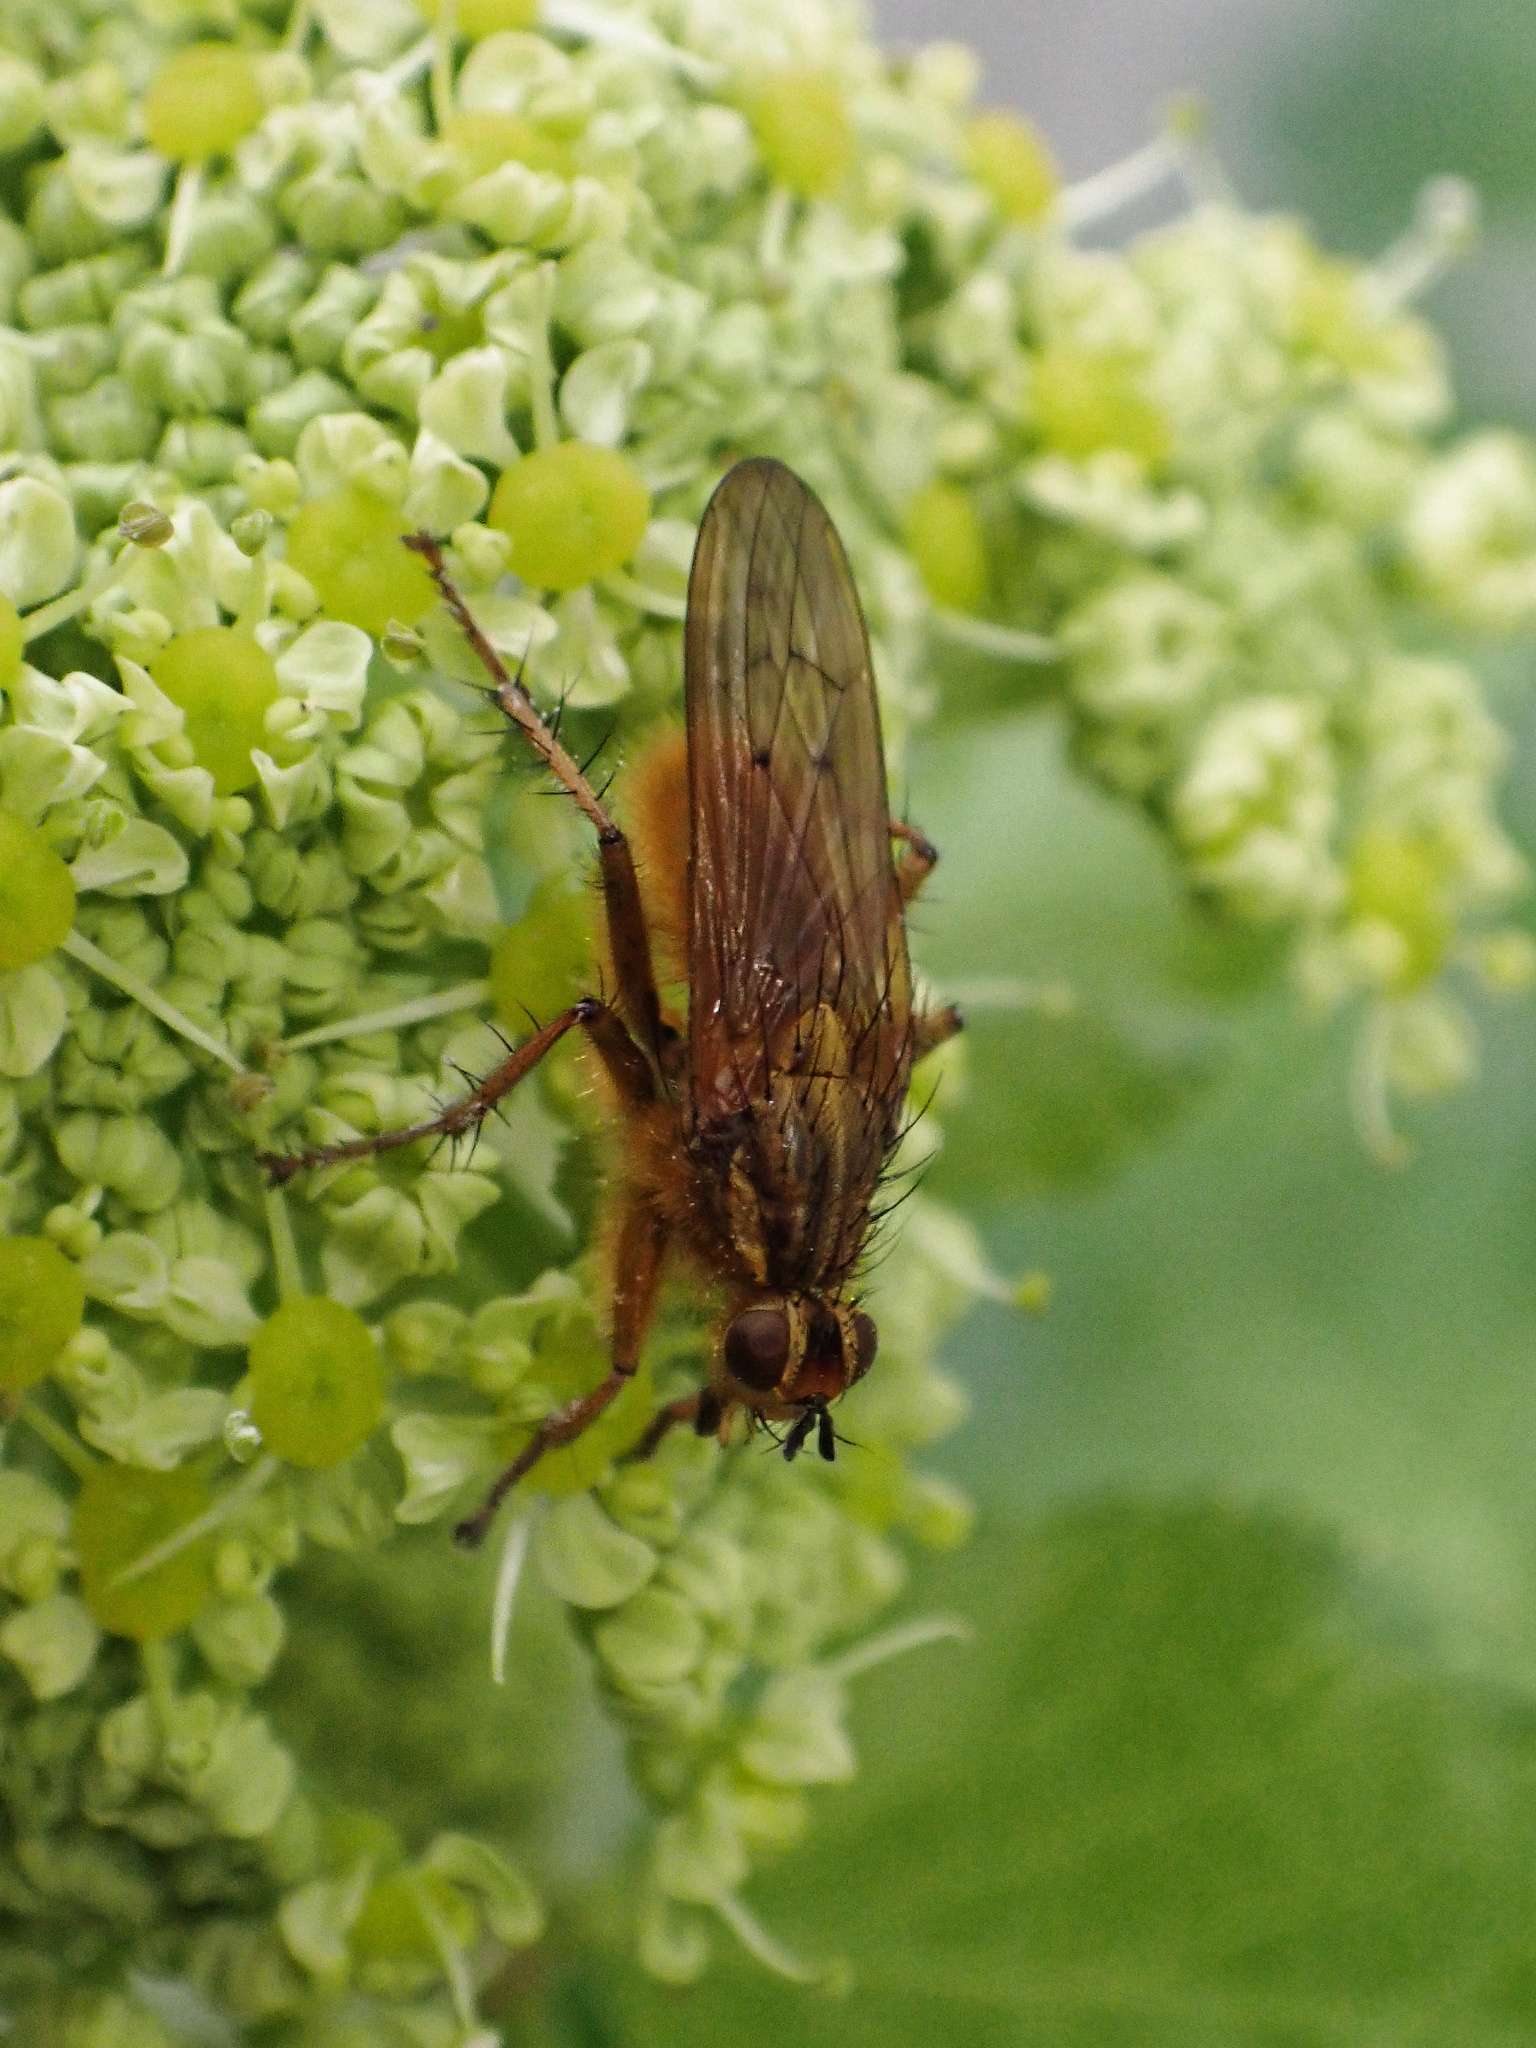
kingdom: Animalia
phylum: Arthropoda
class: Insecta
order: Diptera
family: Scathophagidae
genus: Scathophaga
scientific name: Scathophaga stercoraria
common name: Yellow dung fly
